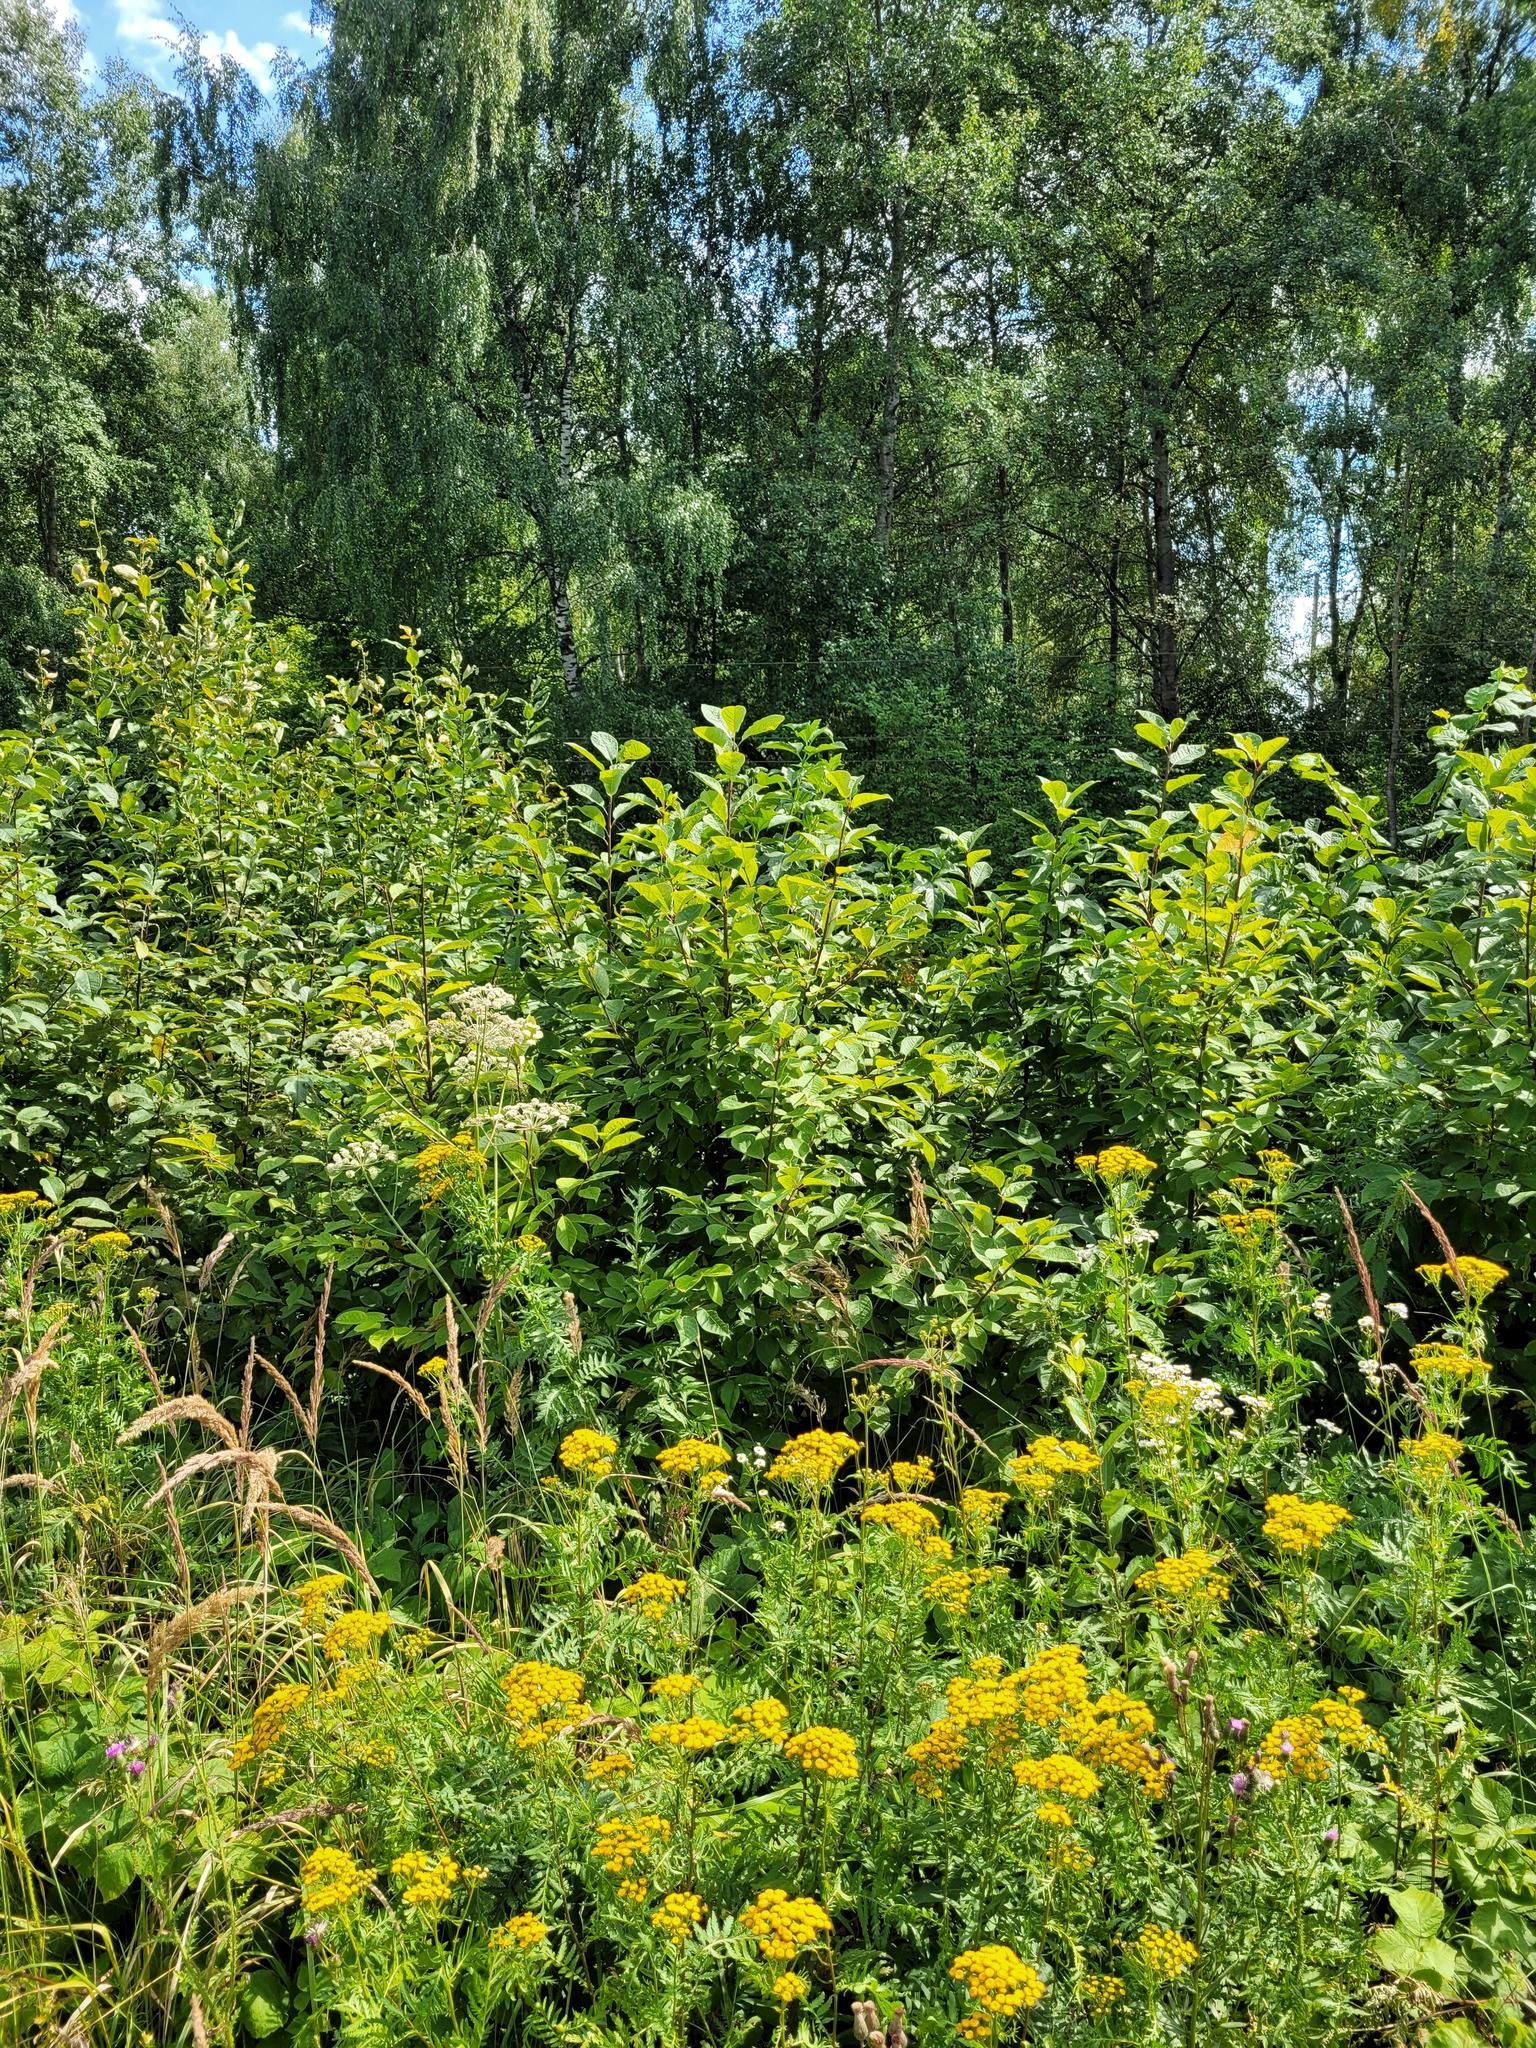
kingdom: Plantae
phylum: Tracheophyta
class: Magnoliopsida
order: Rosales
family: Rosaceae
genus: Prunus
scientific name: Prunus padus
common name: Bird cherry
